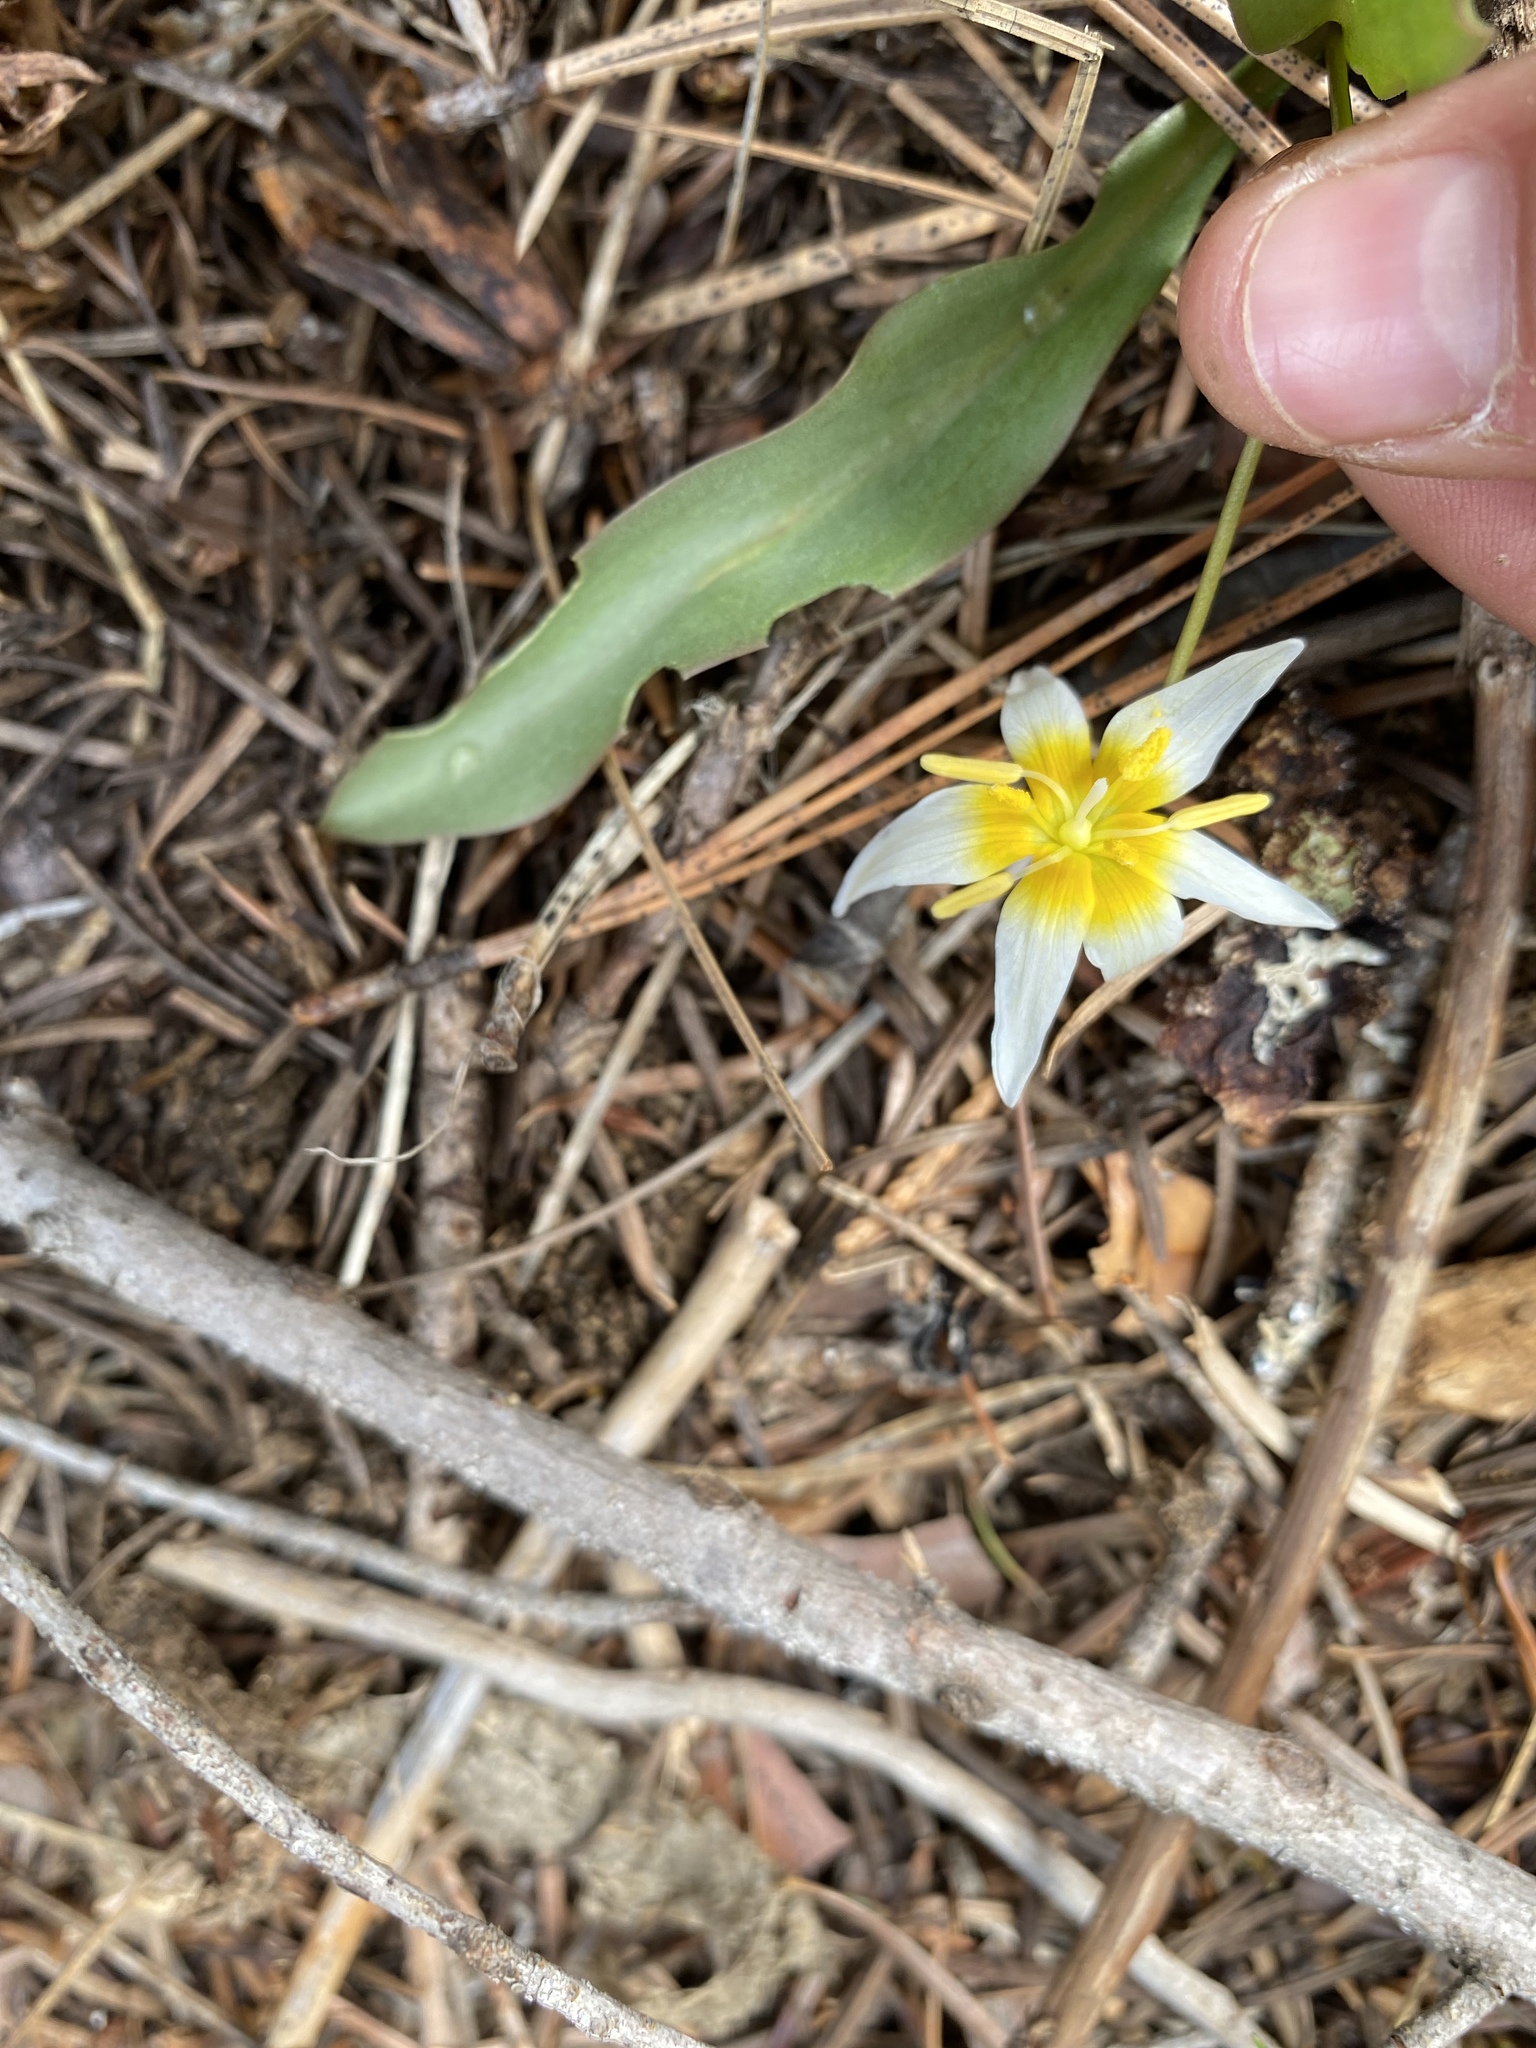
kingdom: Plantae
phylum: Tracheophyta
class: Liliopsida
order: Liliales
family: Liliaceae
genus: Erythronium
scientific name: Erythronium purpurascens
